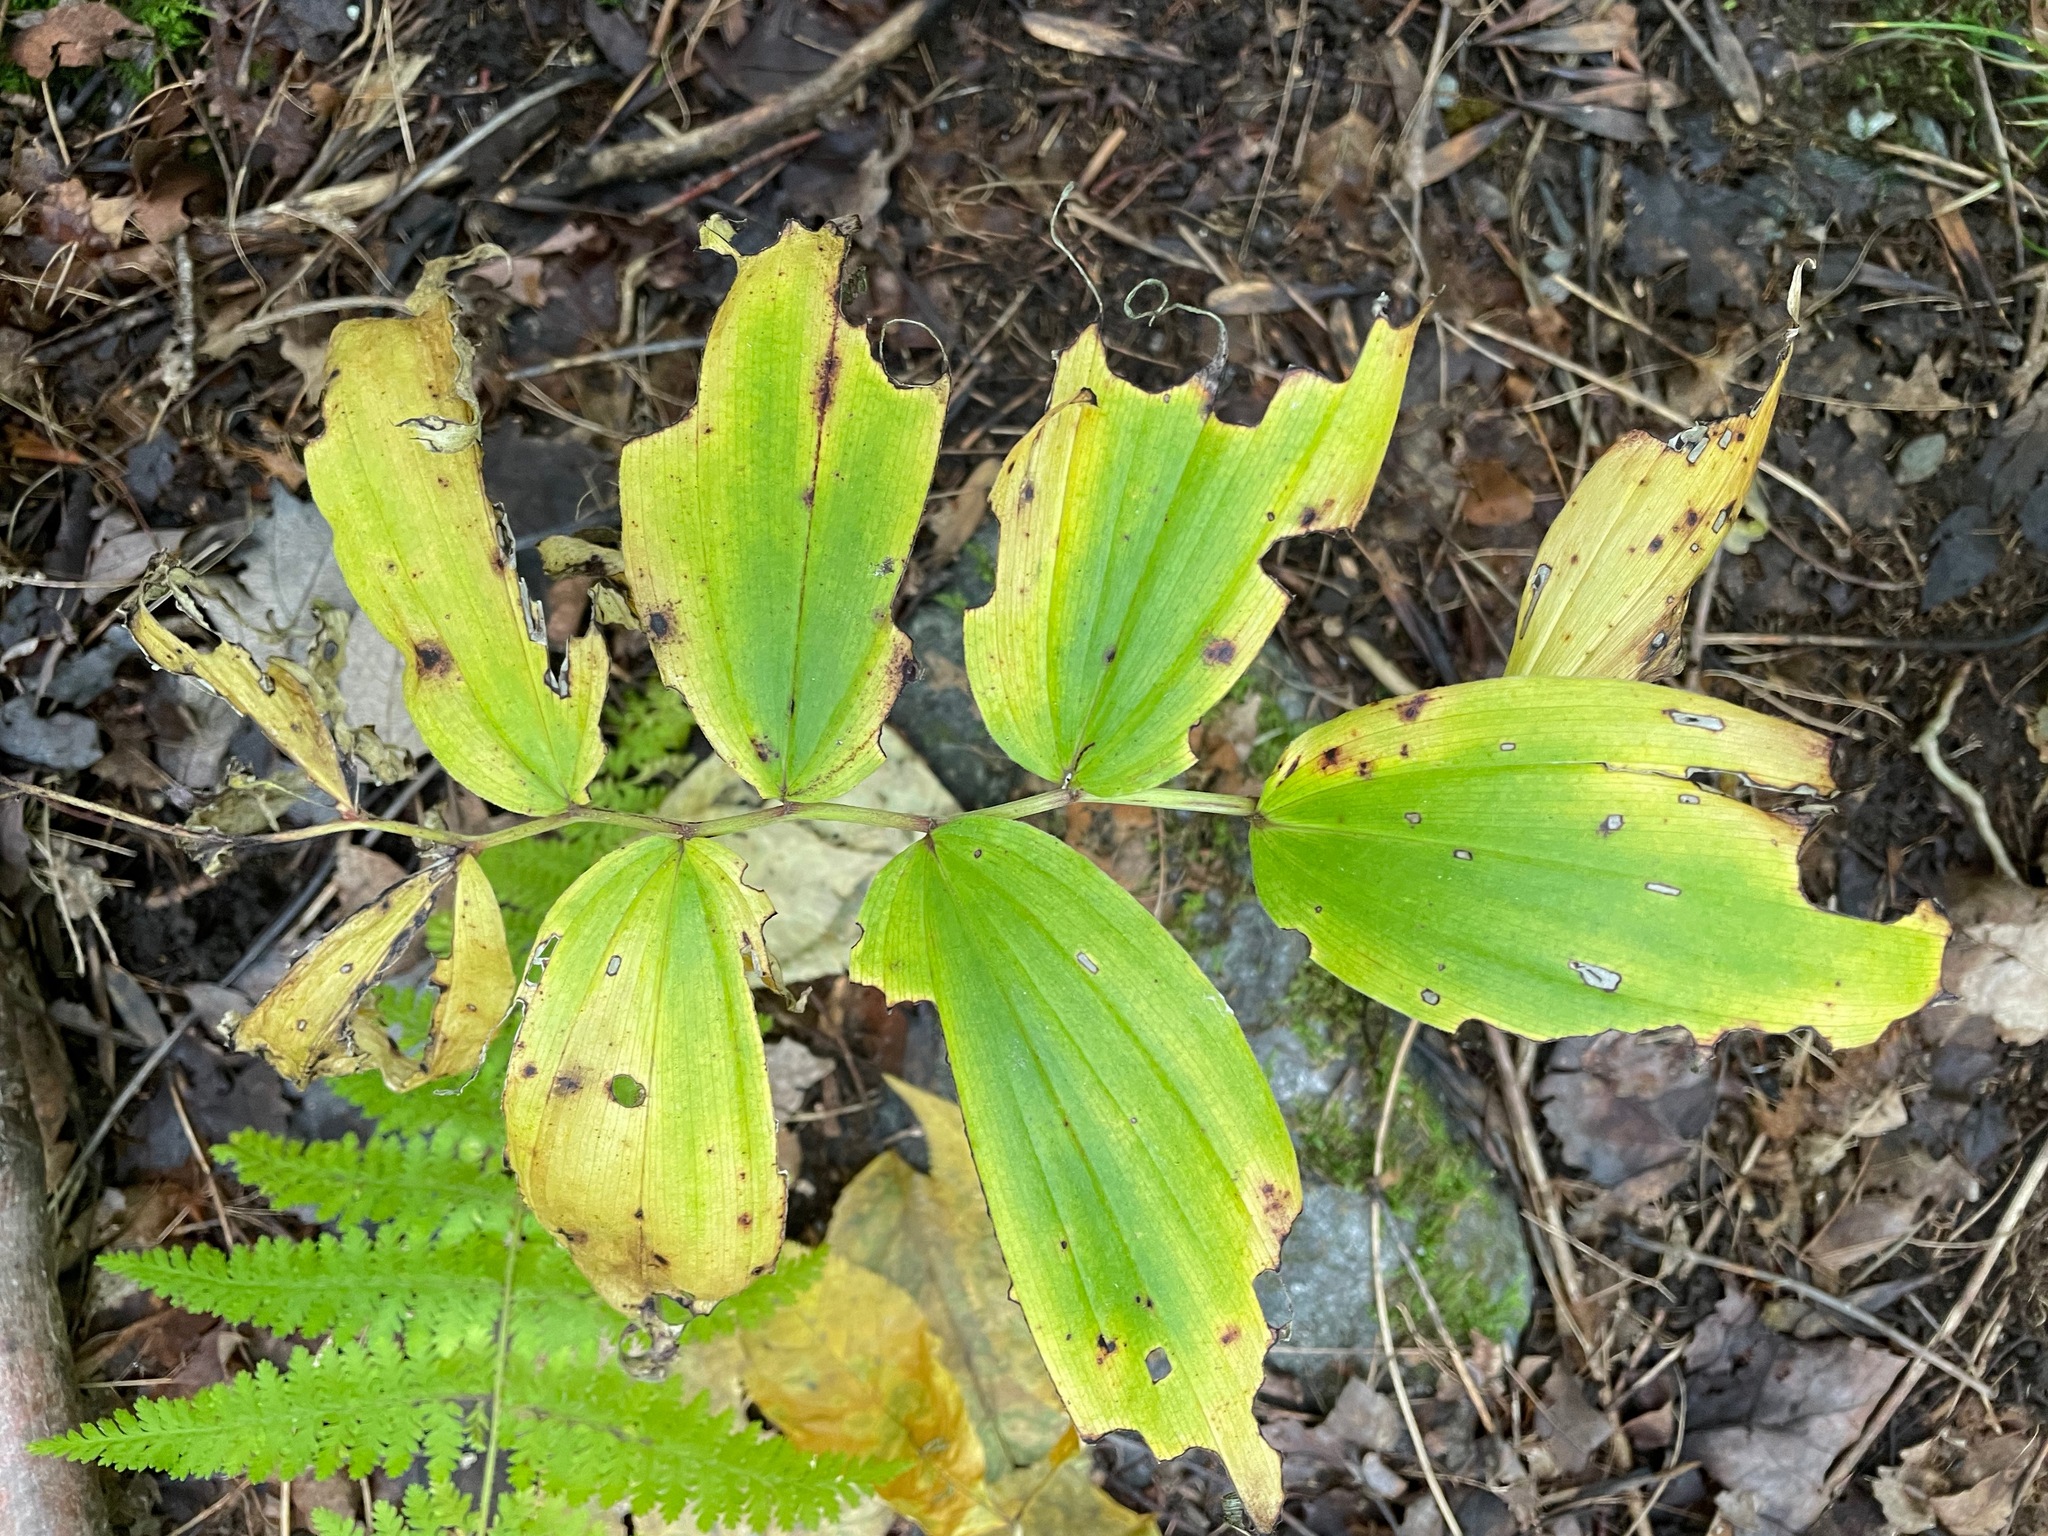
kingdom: Plantae
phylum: Tracheophyta
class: Liliopsida
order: Asparagales
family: Asparagaceae
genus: Maianthemum
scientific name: Maianthemum racemosum
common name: False spikenard
